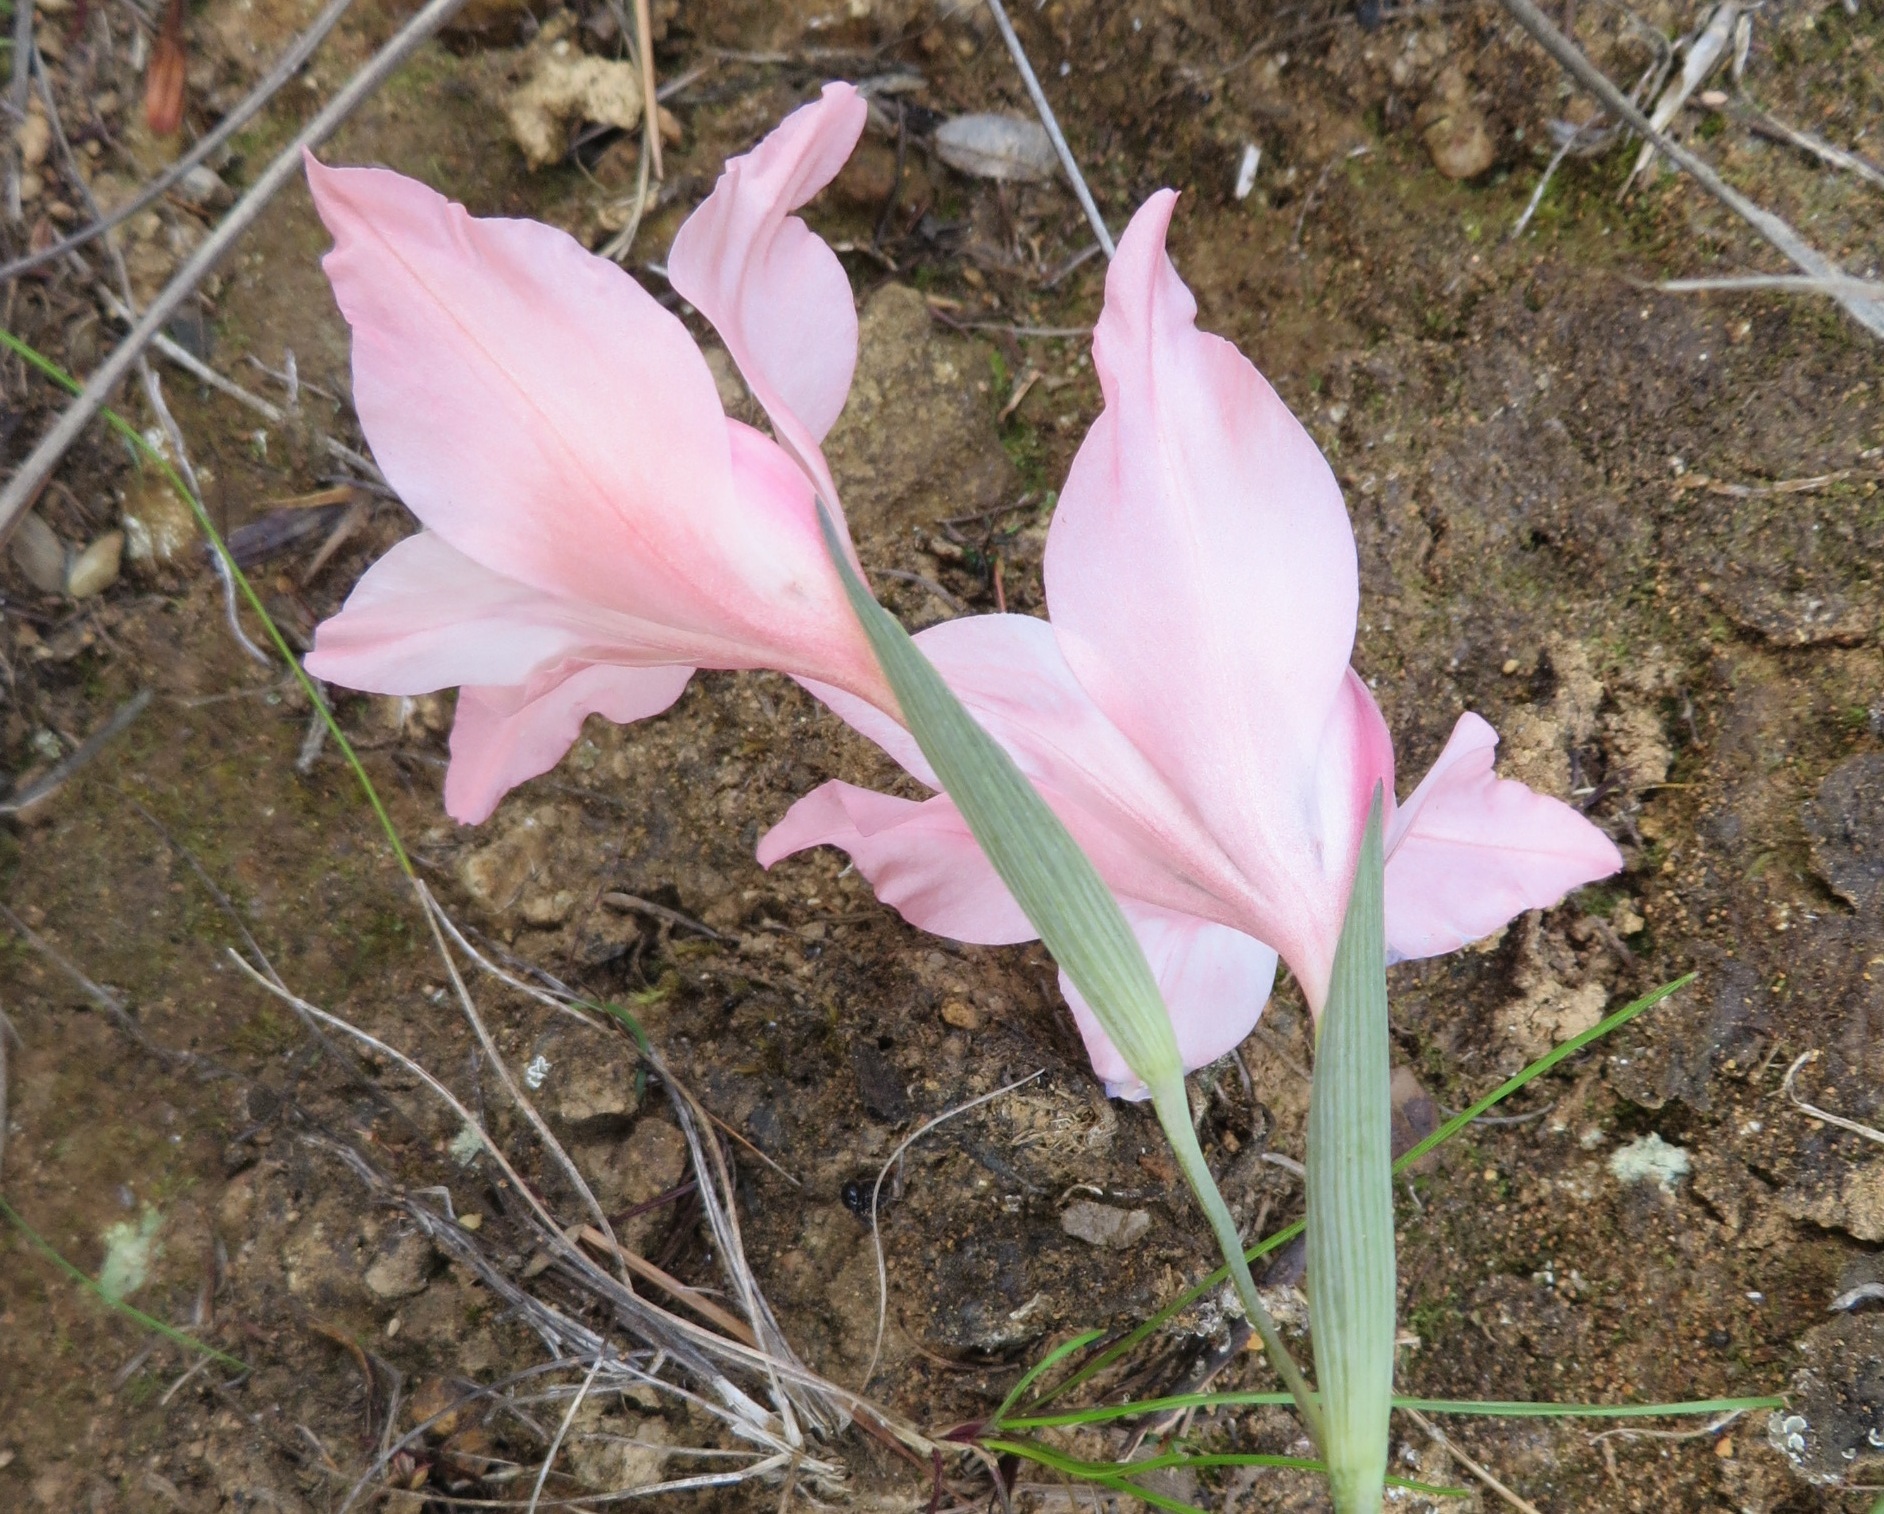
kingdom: Plantae
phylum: Tracheophyta
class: Liliopsida
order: Asparagales
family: Iridaceae
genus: Gladiolus
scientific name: Gladiolus virgatus
